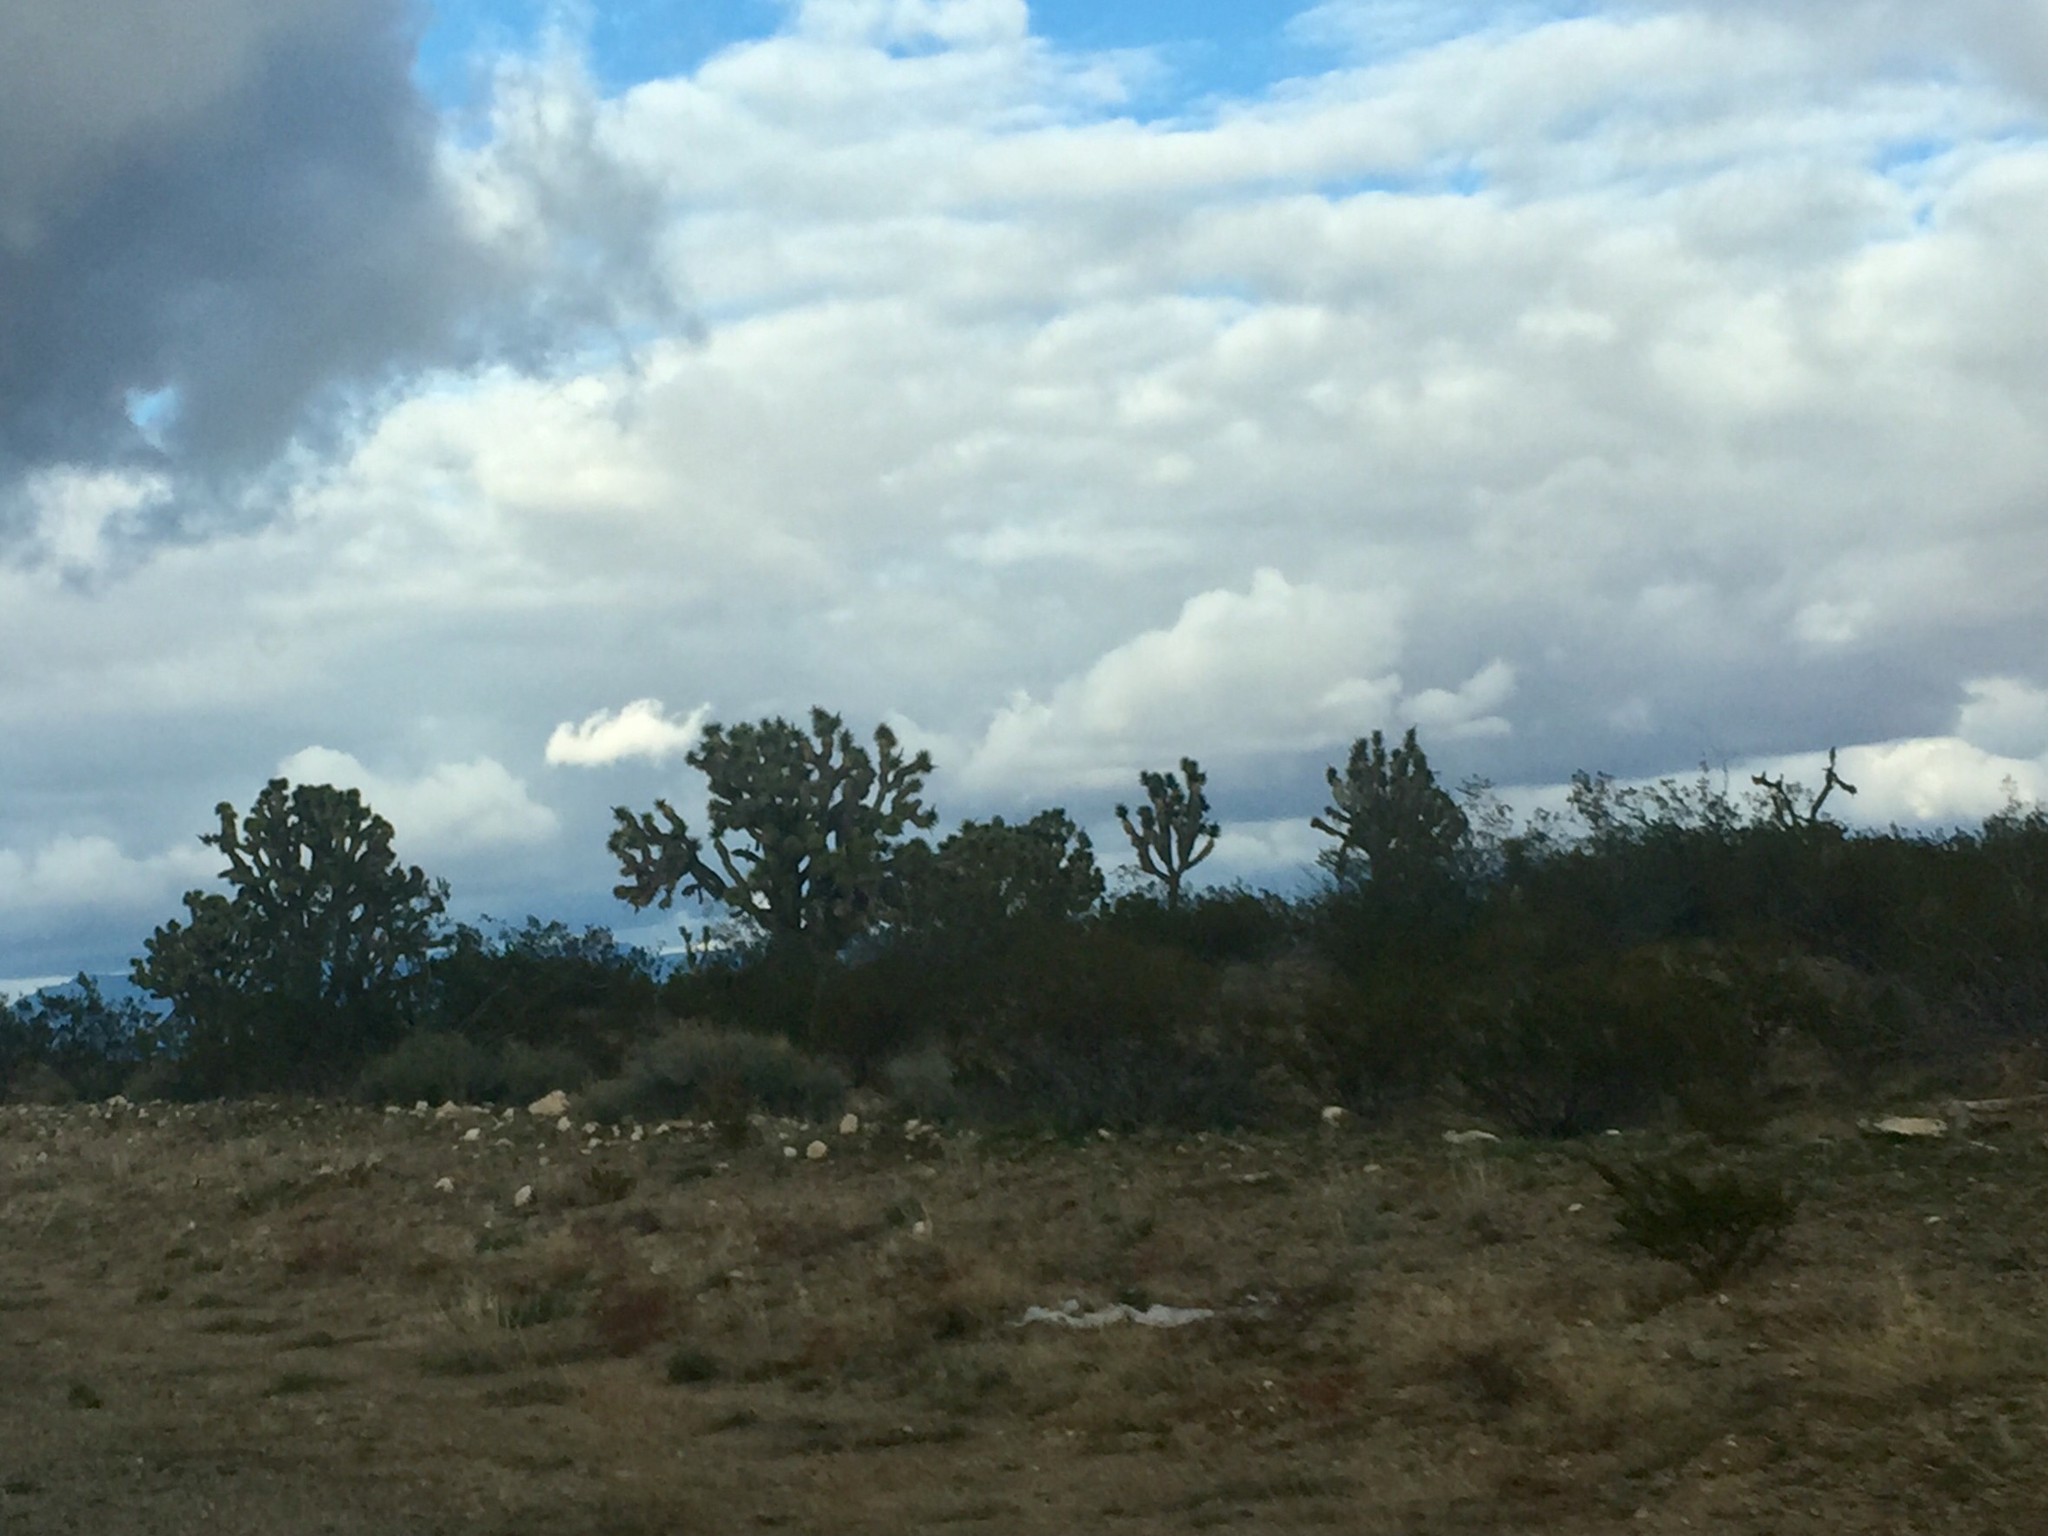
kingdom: Plantae
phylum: Tracheophyta
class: Liliopsida
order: Asparagales
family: Asparagaceae
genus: Yucca
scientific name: Yucca brevifolia
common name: Joshua tree
